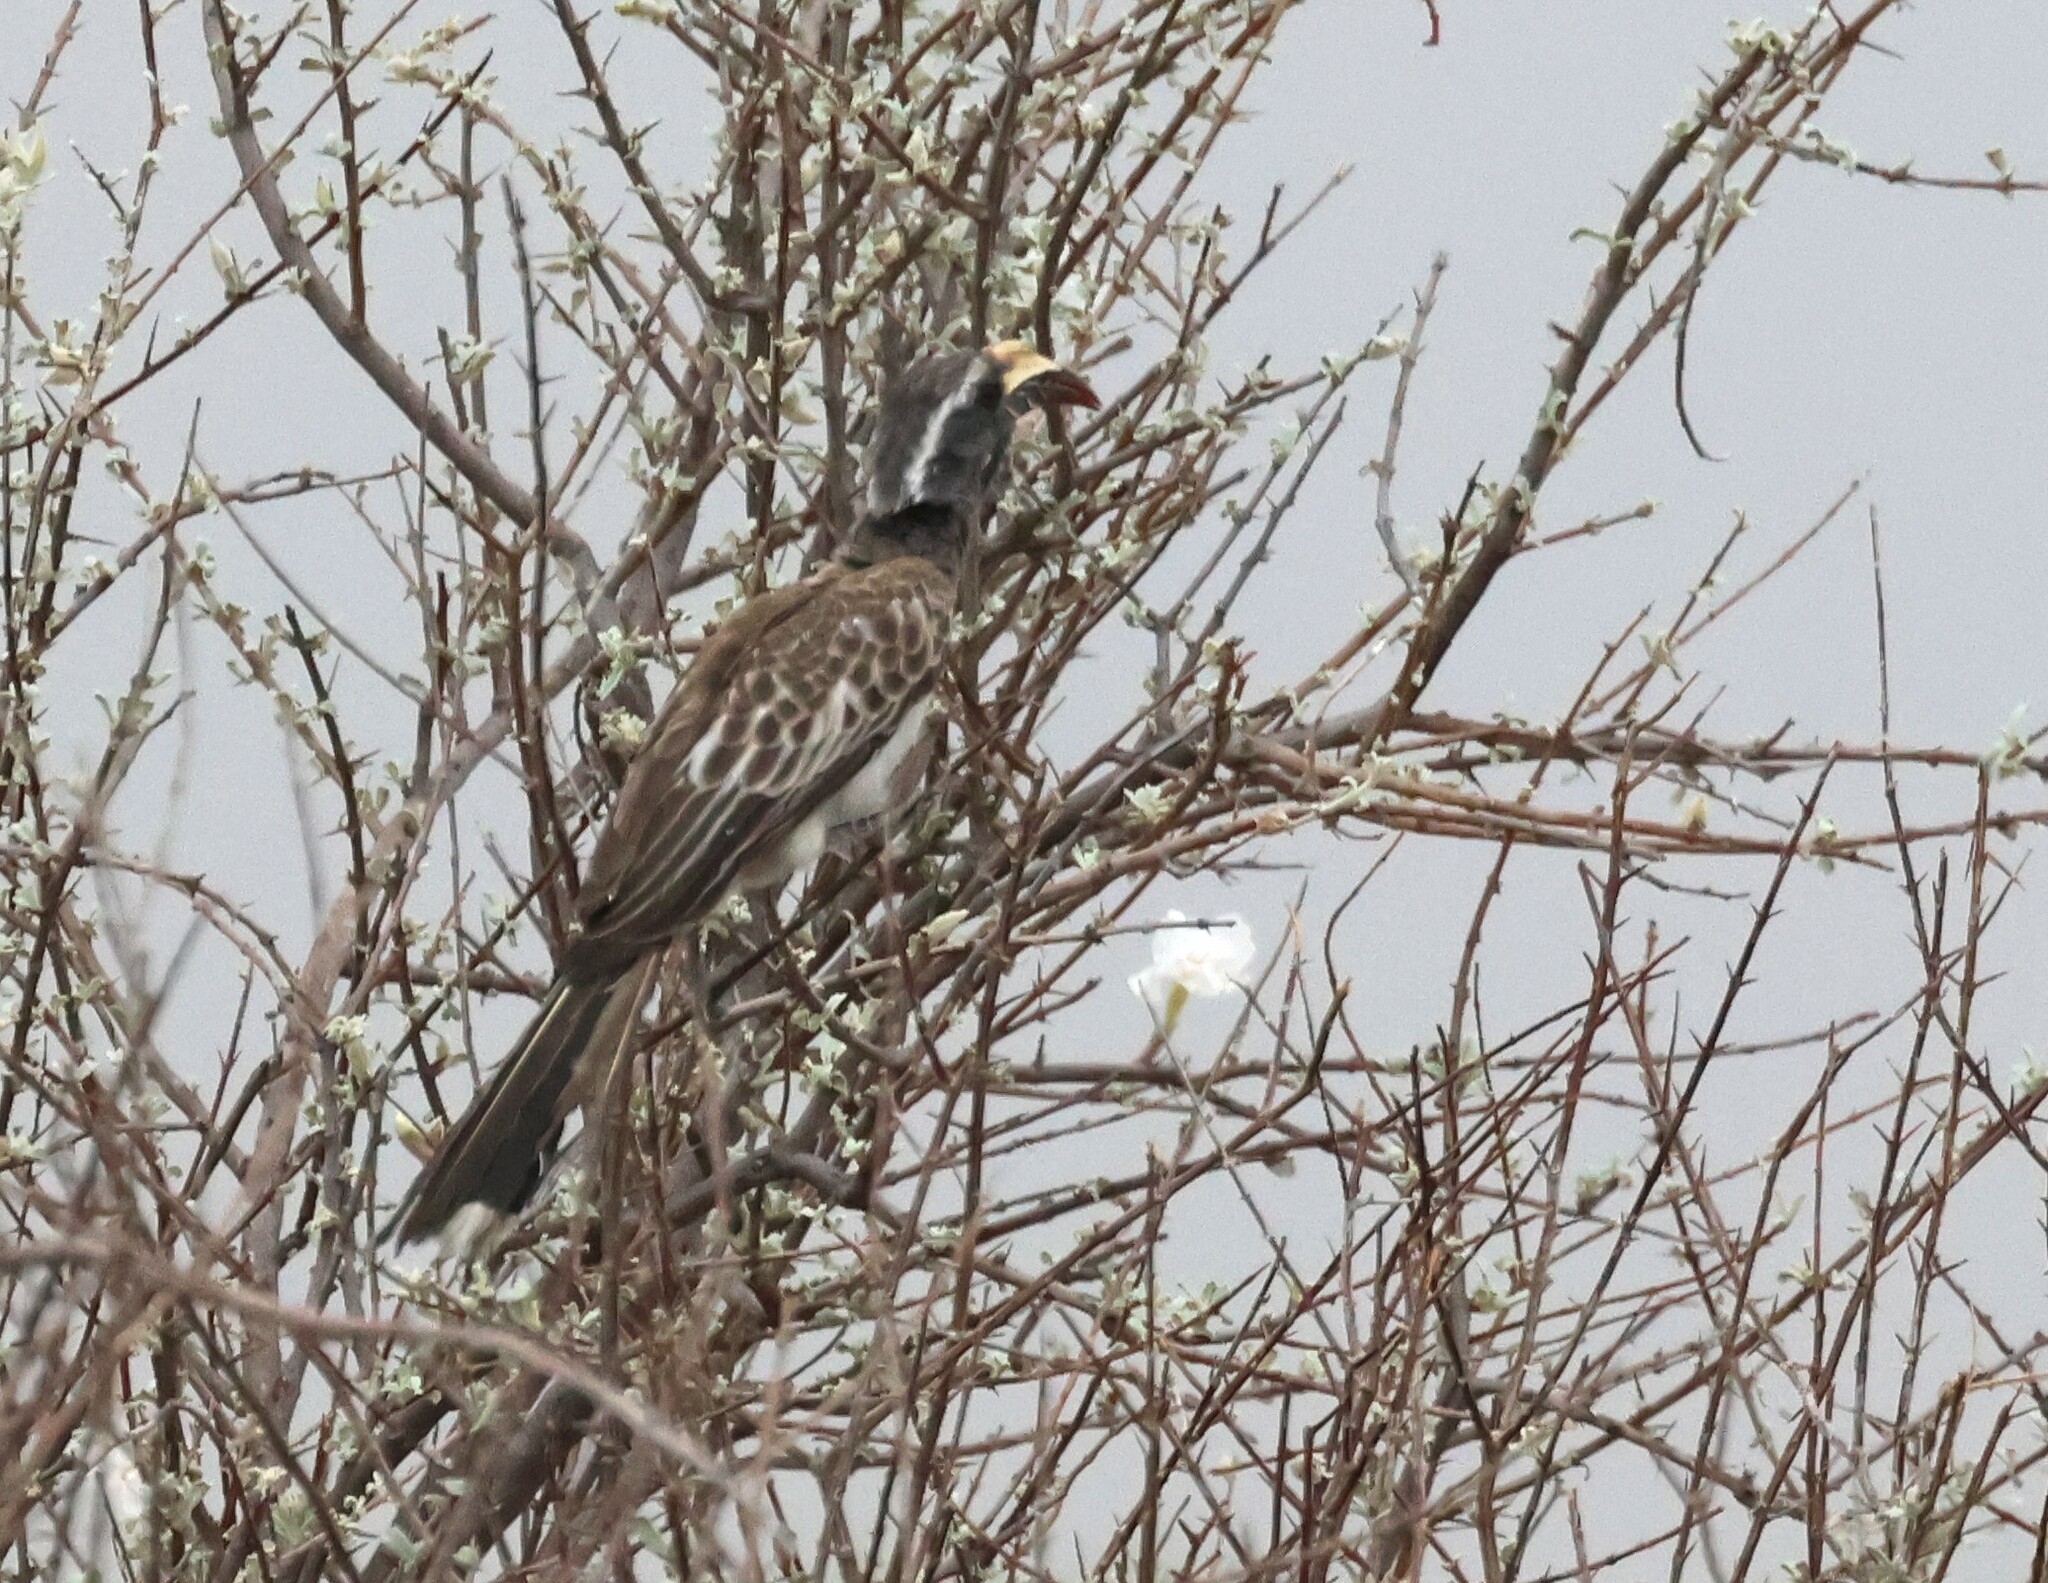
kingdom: Animalia
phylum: Chordata
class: Aves
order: Bucerotiformes
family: Bucerotidae
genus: Lophoceros
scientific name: Lophoceros nasutus
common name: African grey hornbill
